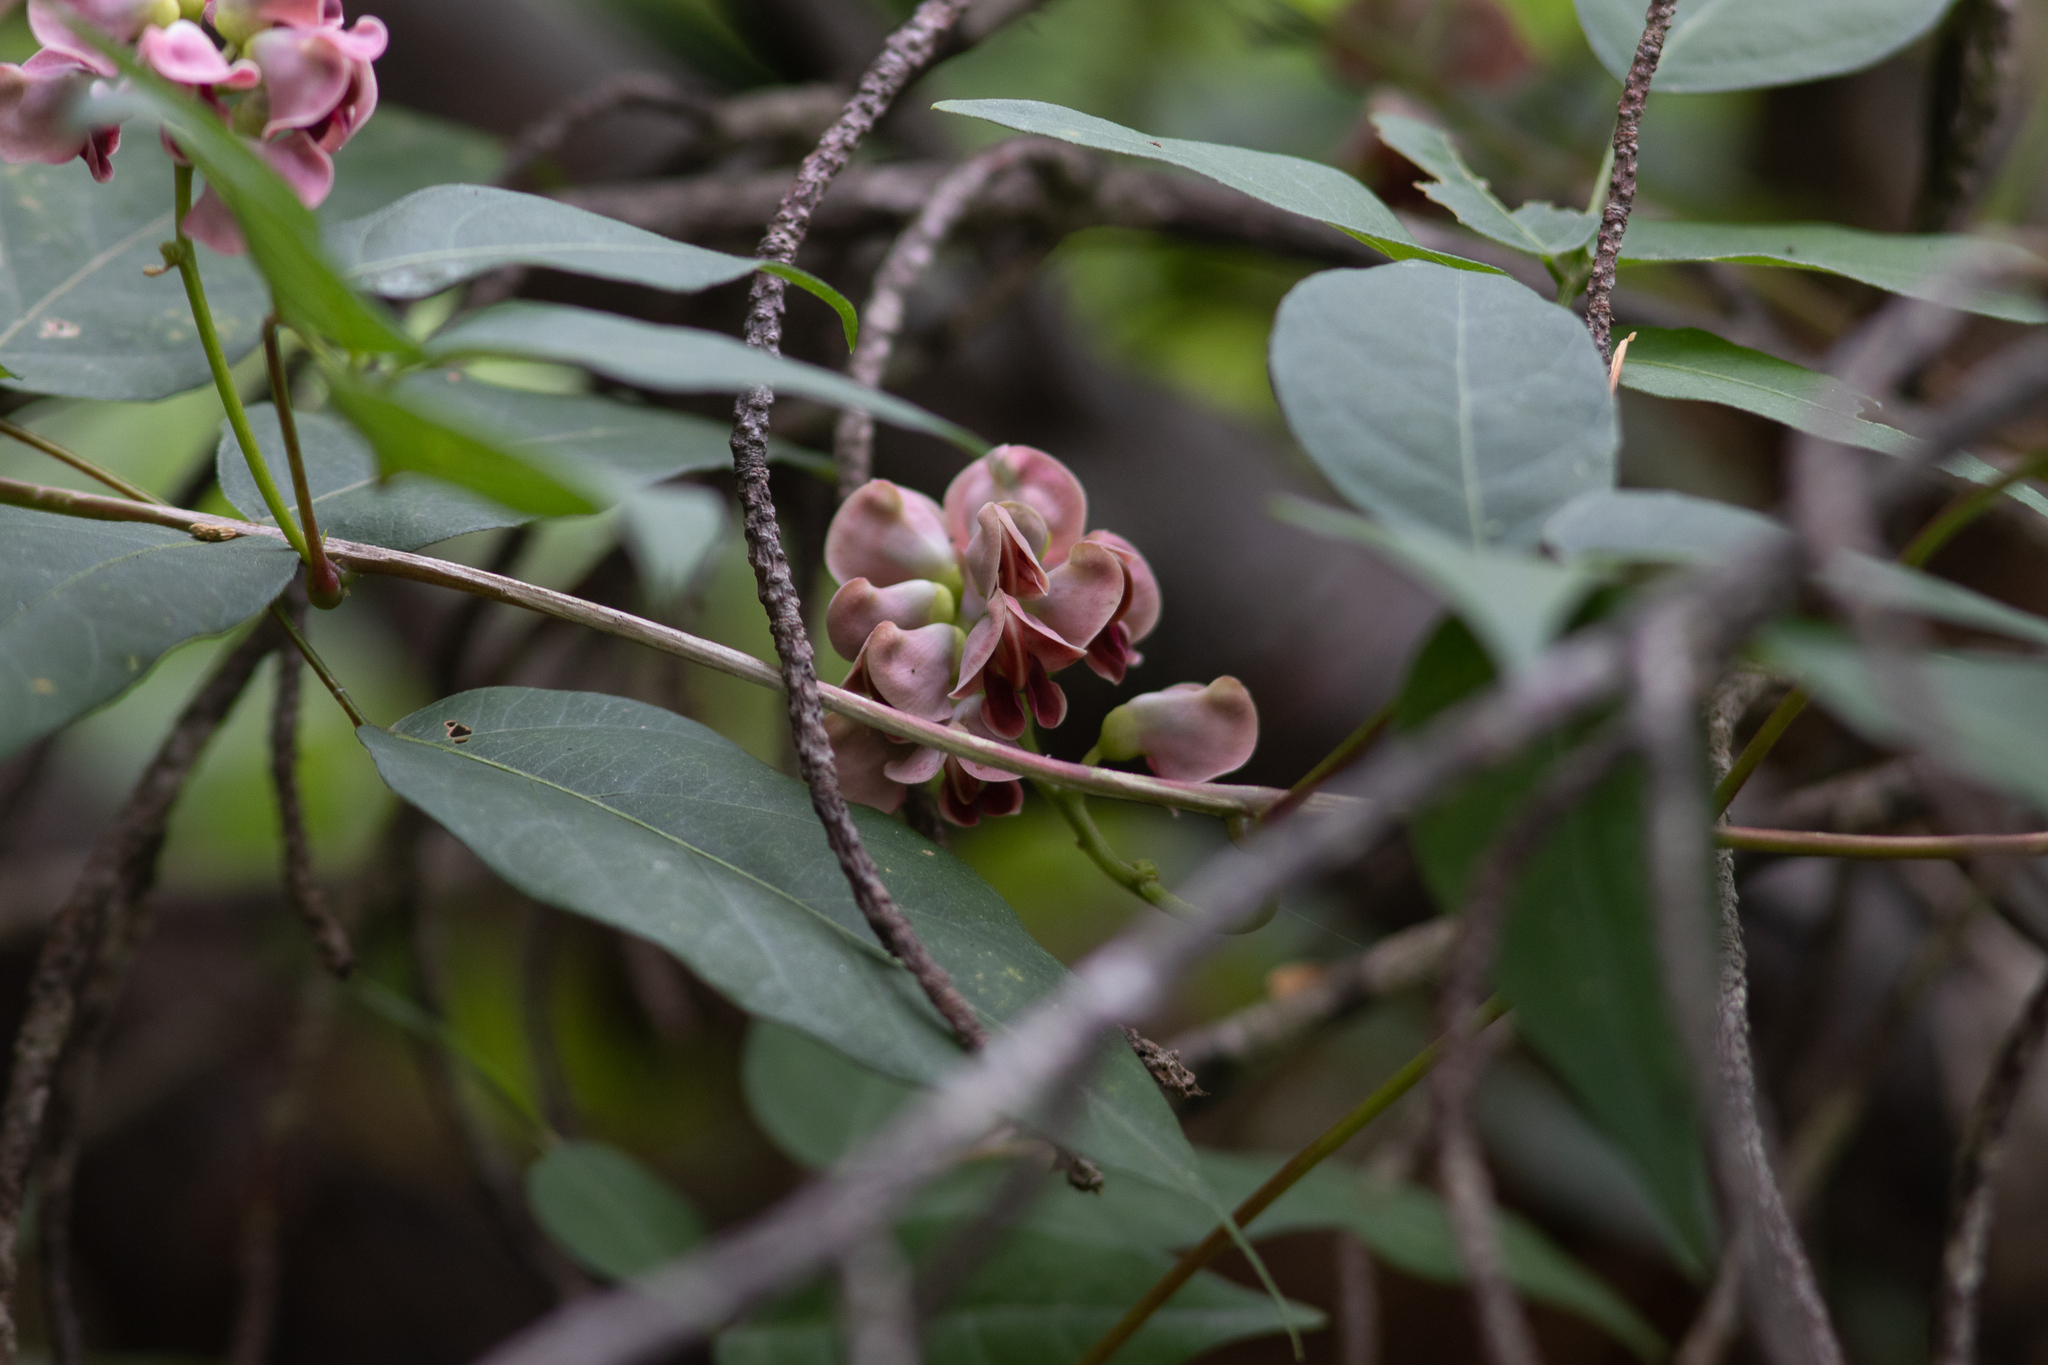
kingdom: Plantae
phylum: Tracheophyta
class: Magnoliopsida
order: Fabales
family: Fabaceae
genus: Apios
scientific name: Apios americana
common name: American potato-bean
